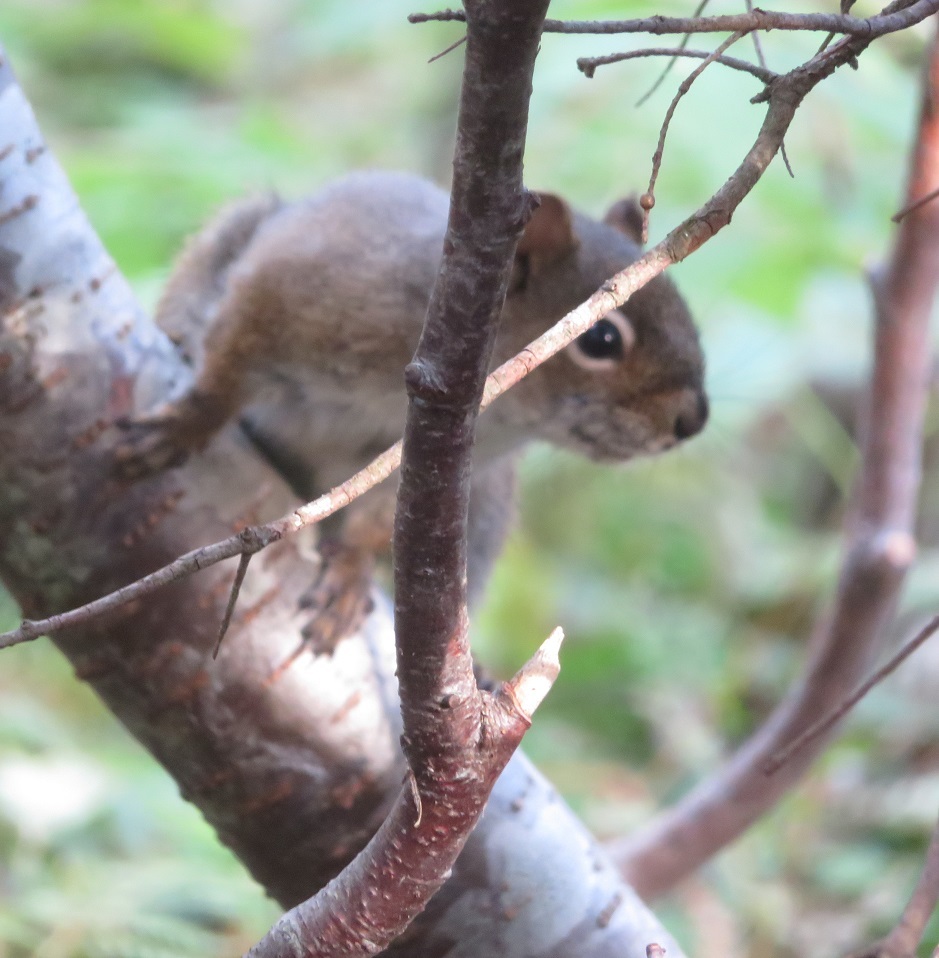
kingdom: Animalia
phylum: Chordata
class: Mammalia
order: Rodentia
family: Sciuridae
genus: Tamiasciurus
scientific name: Tamiasciurus hudsonicus
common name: Red squirrel
